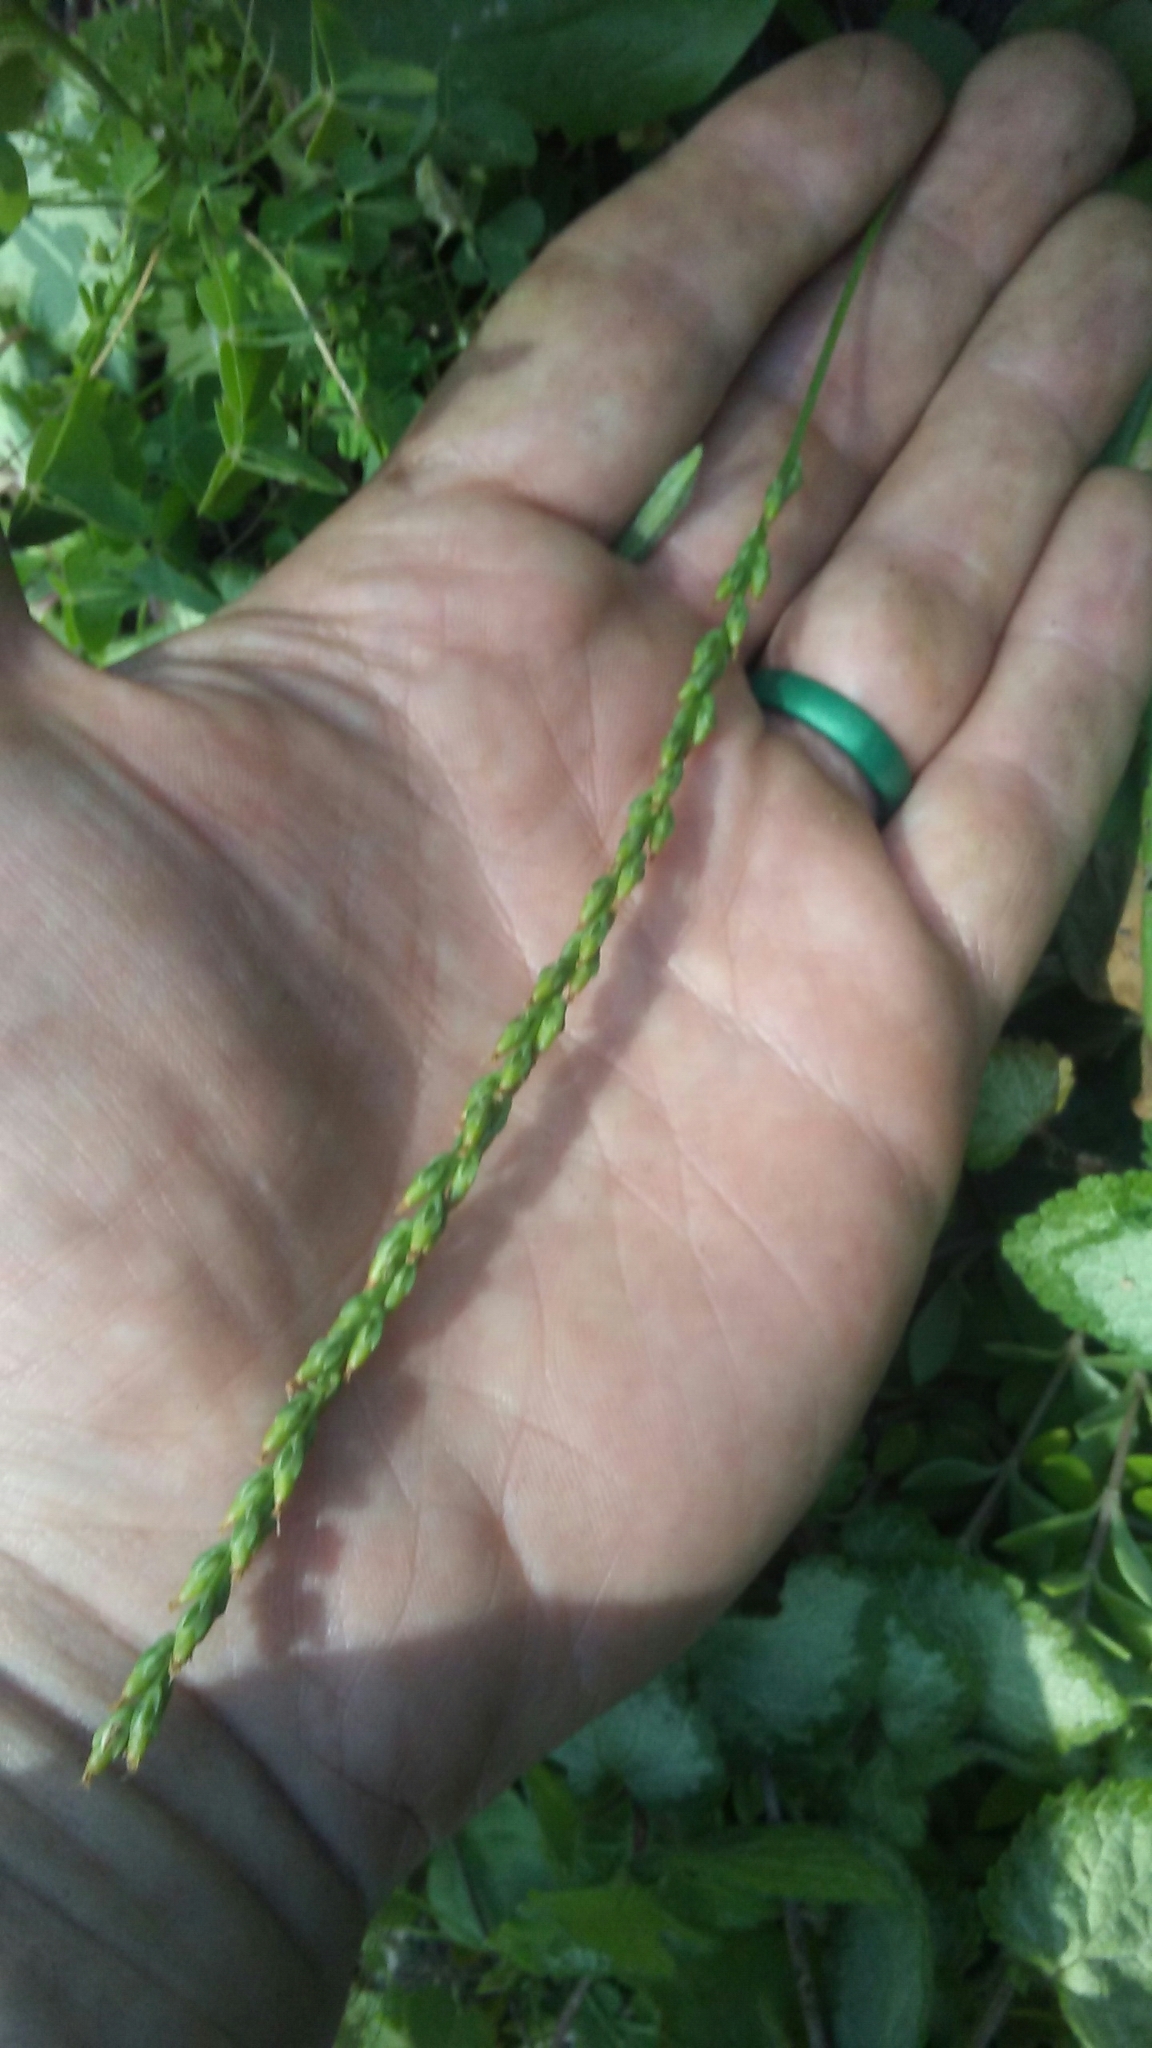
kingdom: Plantae
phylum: Tracheophyta
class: Magnoliopsida
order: Lamiales
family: Plantaginaceae
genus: Plantago
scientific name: Plantago rugelii
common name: American plantain
